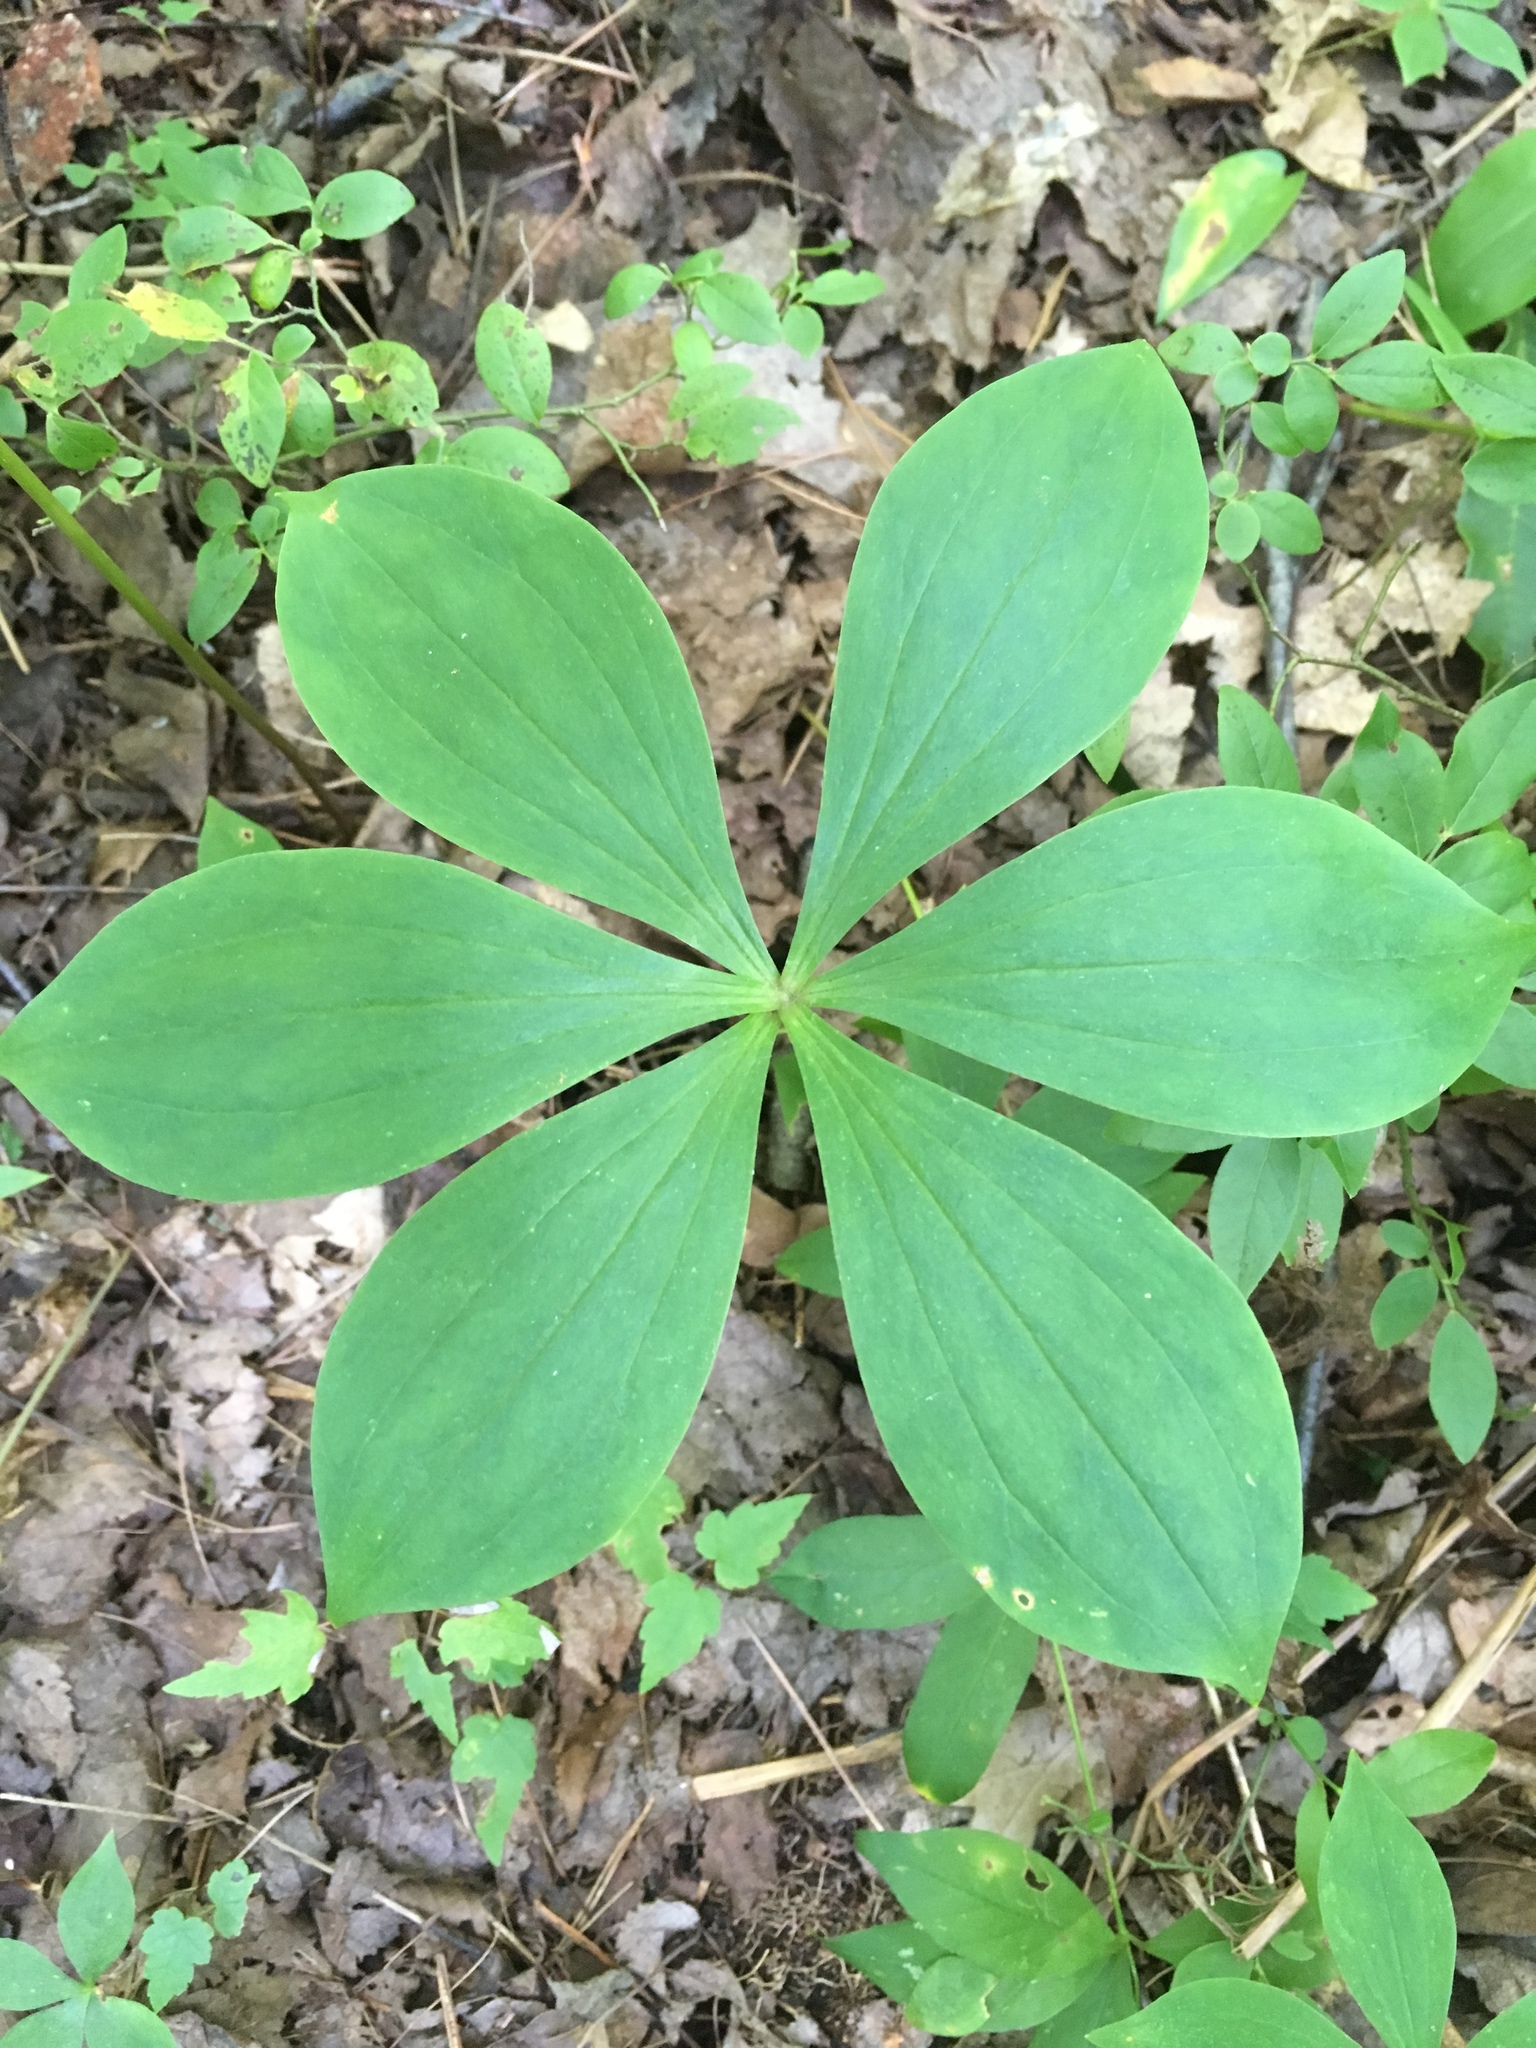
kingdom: Plantae
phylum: Tracheophyta
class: Liliopsida
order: Liliales
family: Liliaceae
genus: Medeola
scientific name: Medeola virginiana
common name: Indian cucumber-root
